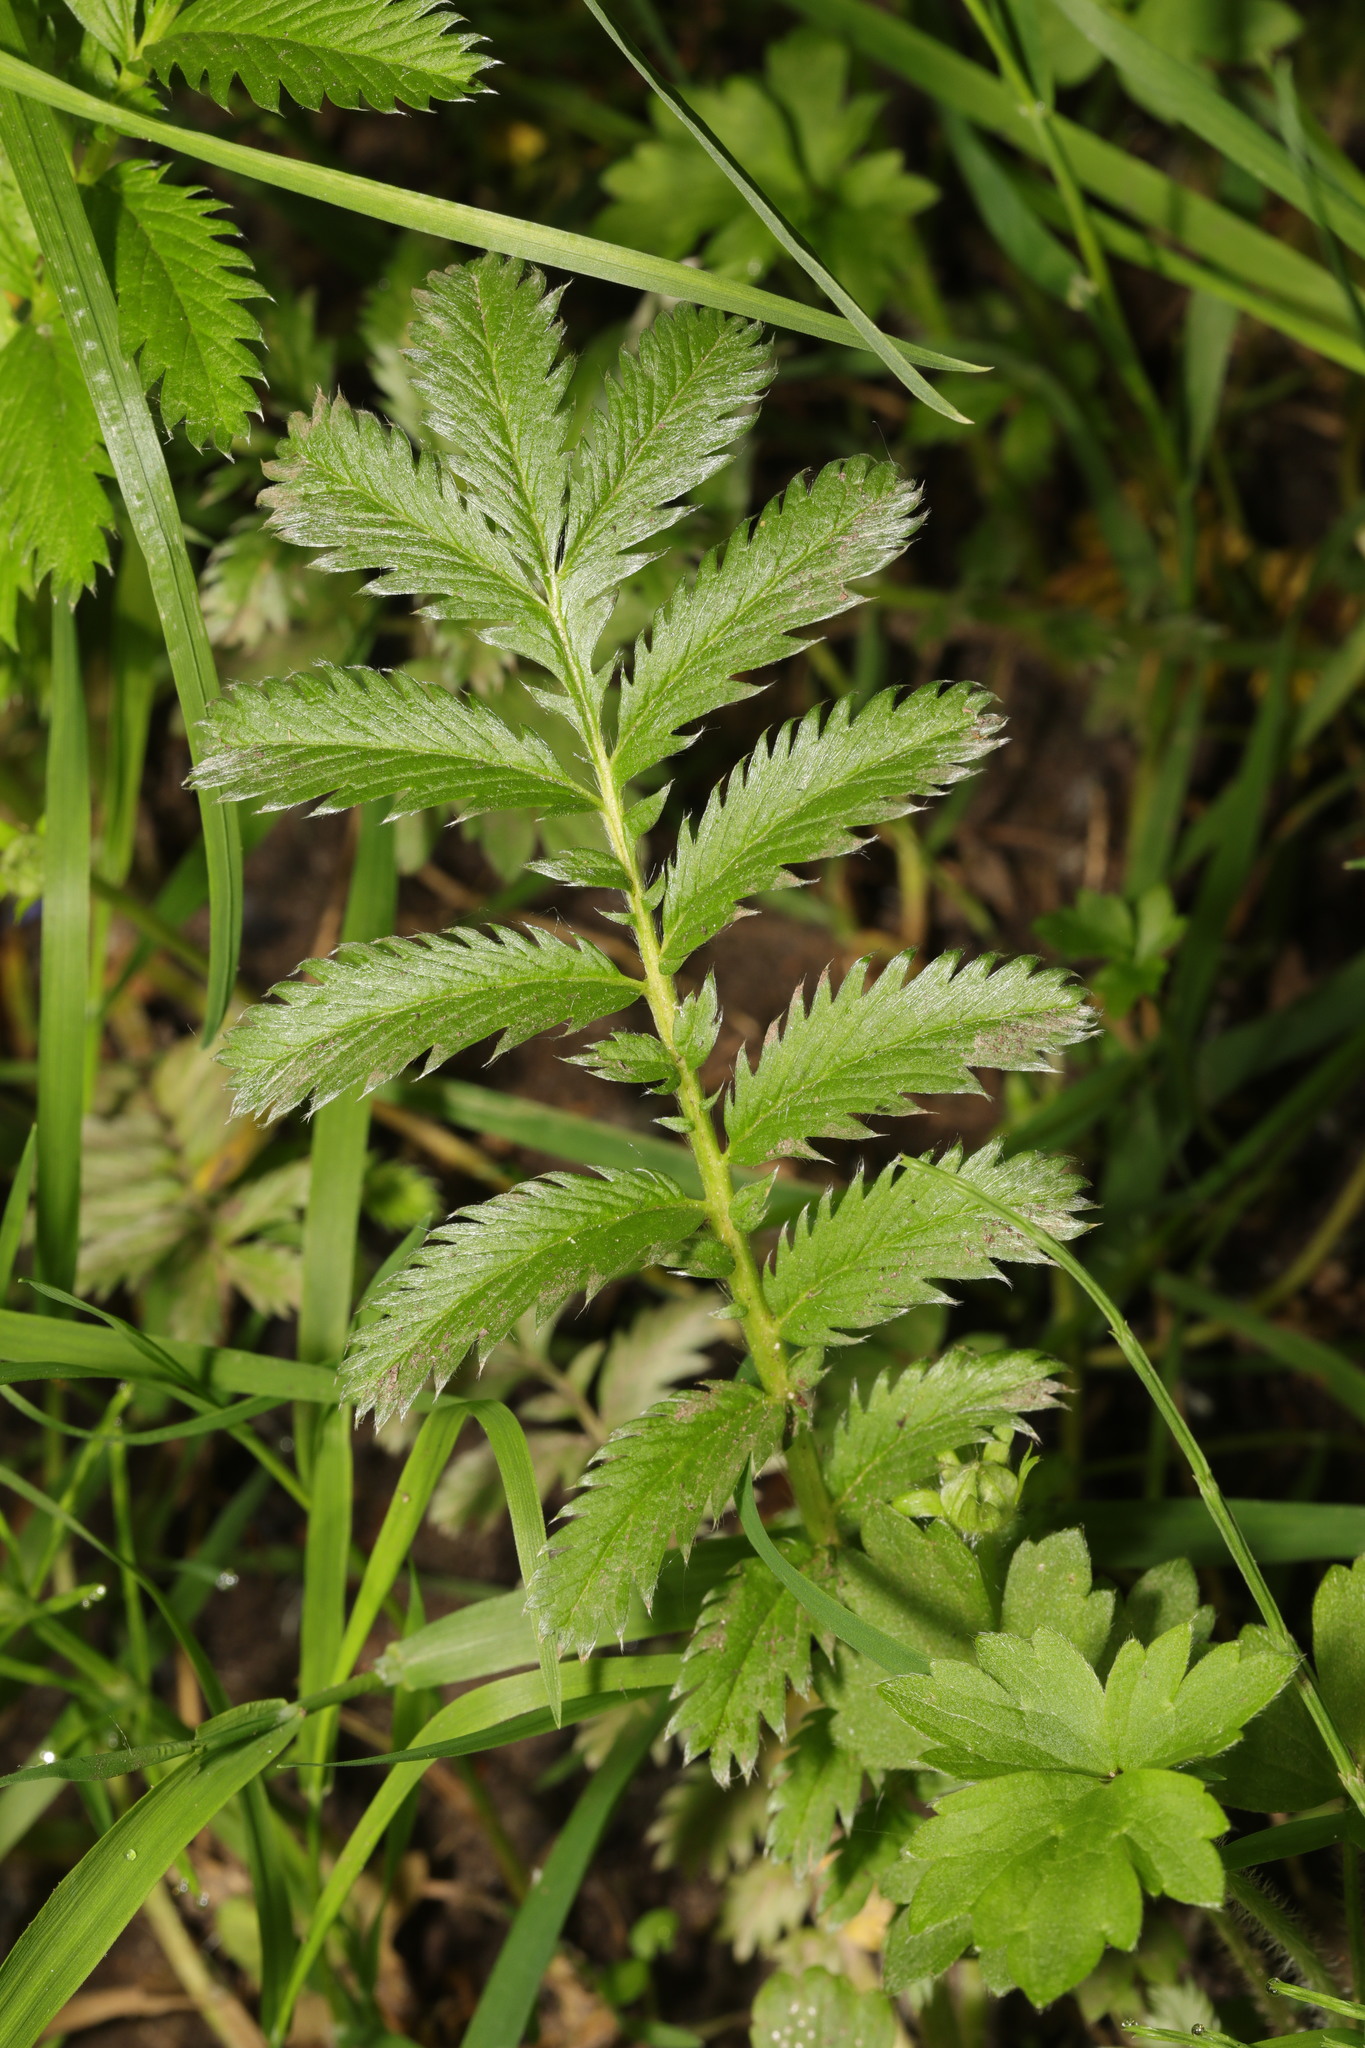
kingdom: Plantae
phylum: Tracheophyta
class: Magnoliopsida
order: Rosales
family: Rosaceae
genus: Argentina
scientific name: Argentina anserina
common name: Common silverweed
